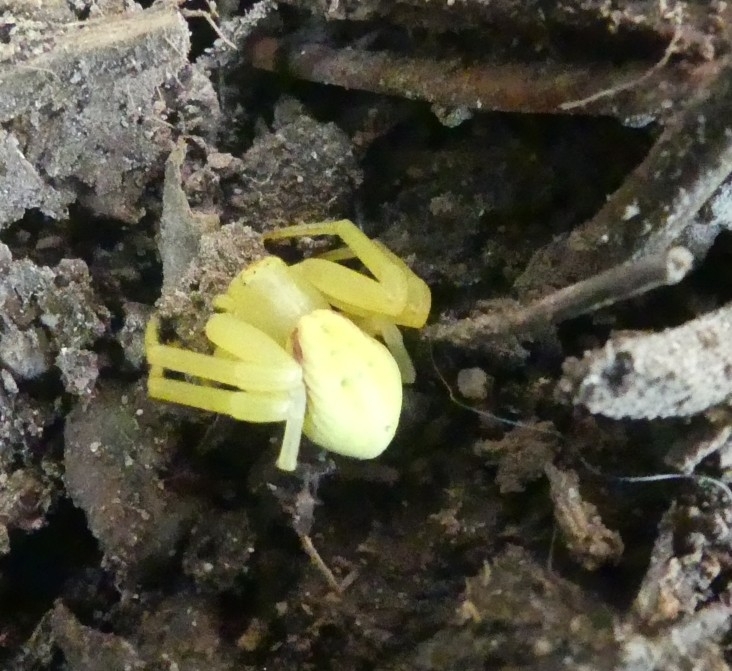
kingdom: Animalia
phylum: Arthropoda
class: Arachnida
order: Araneae
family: Thomisidae
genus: Misumena
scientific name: Misumena vatia
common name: Goldenrod crab spider
